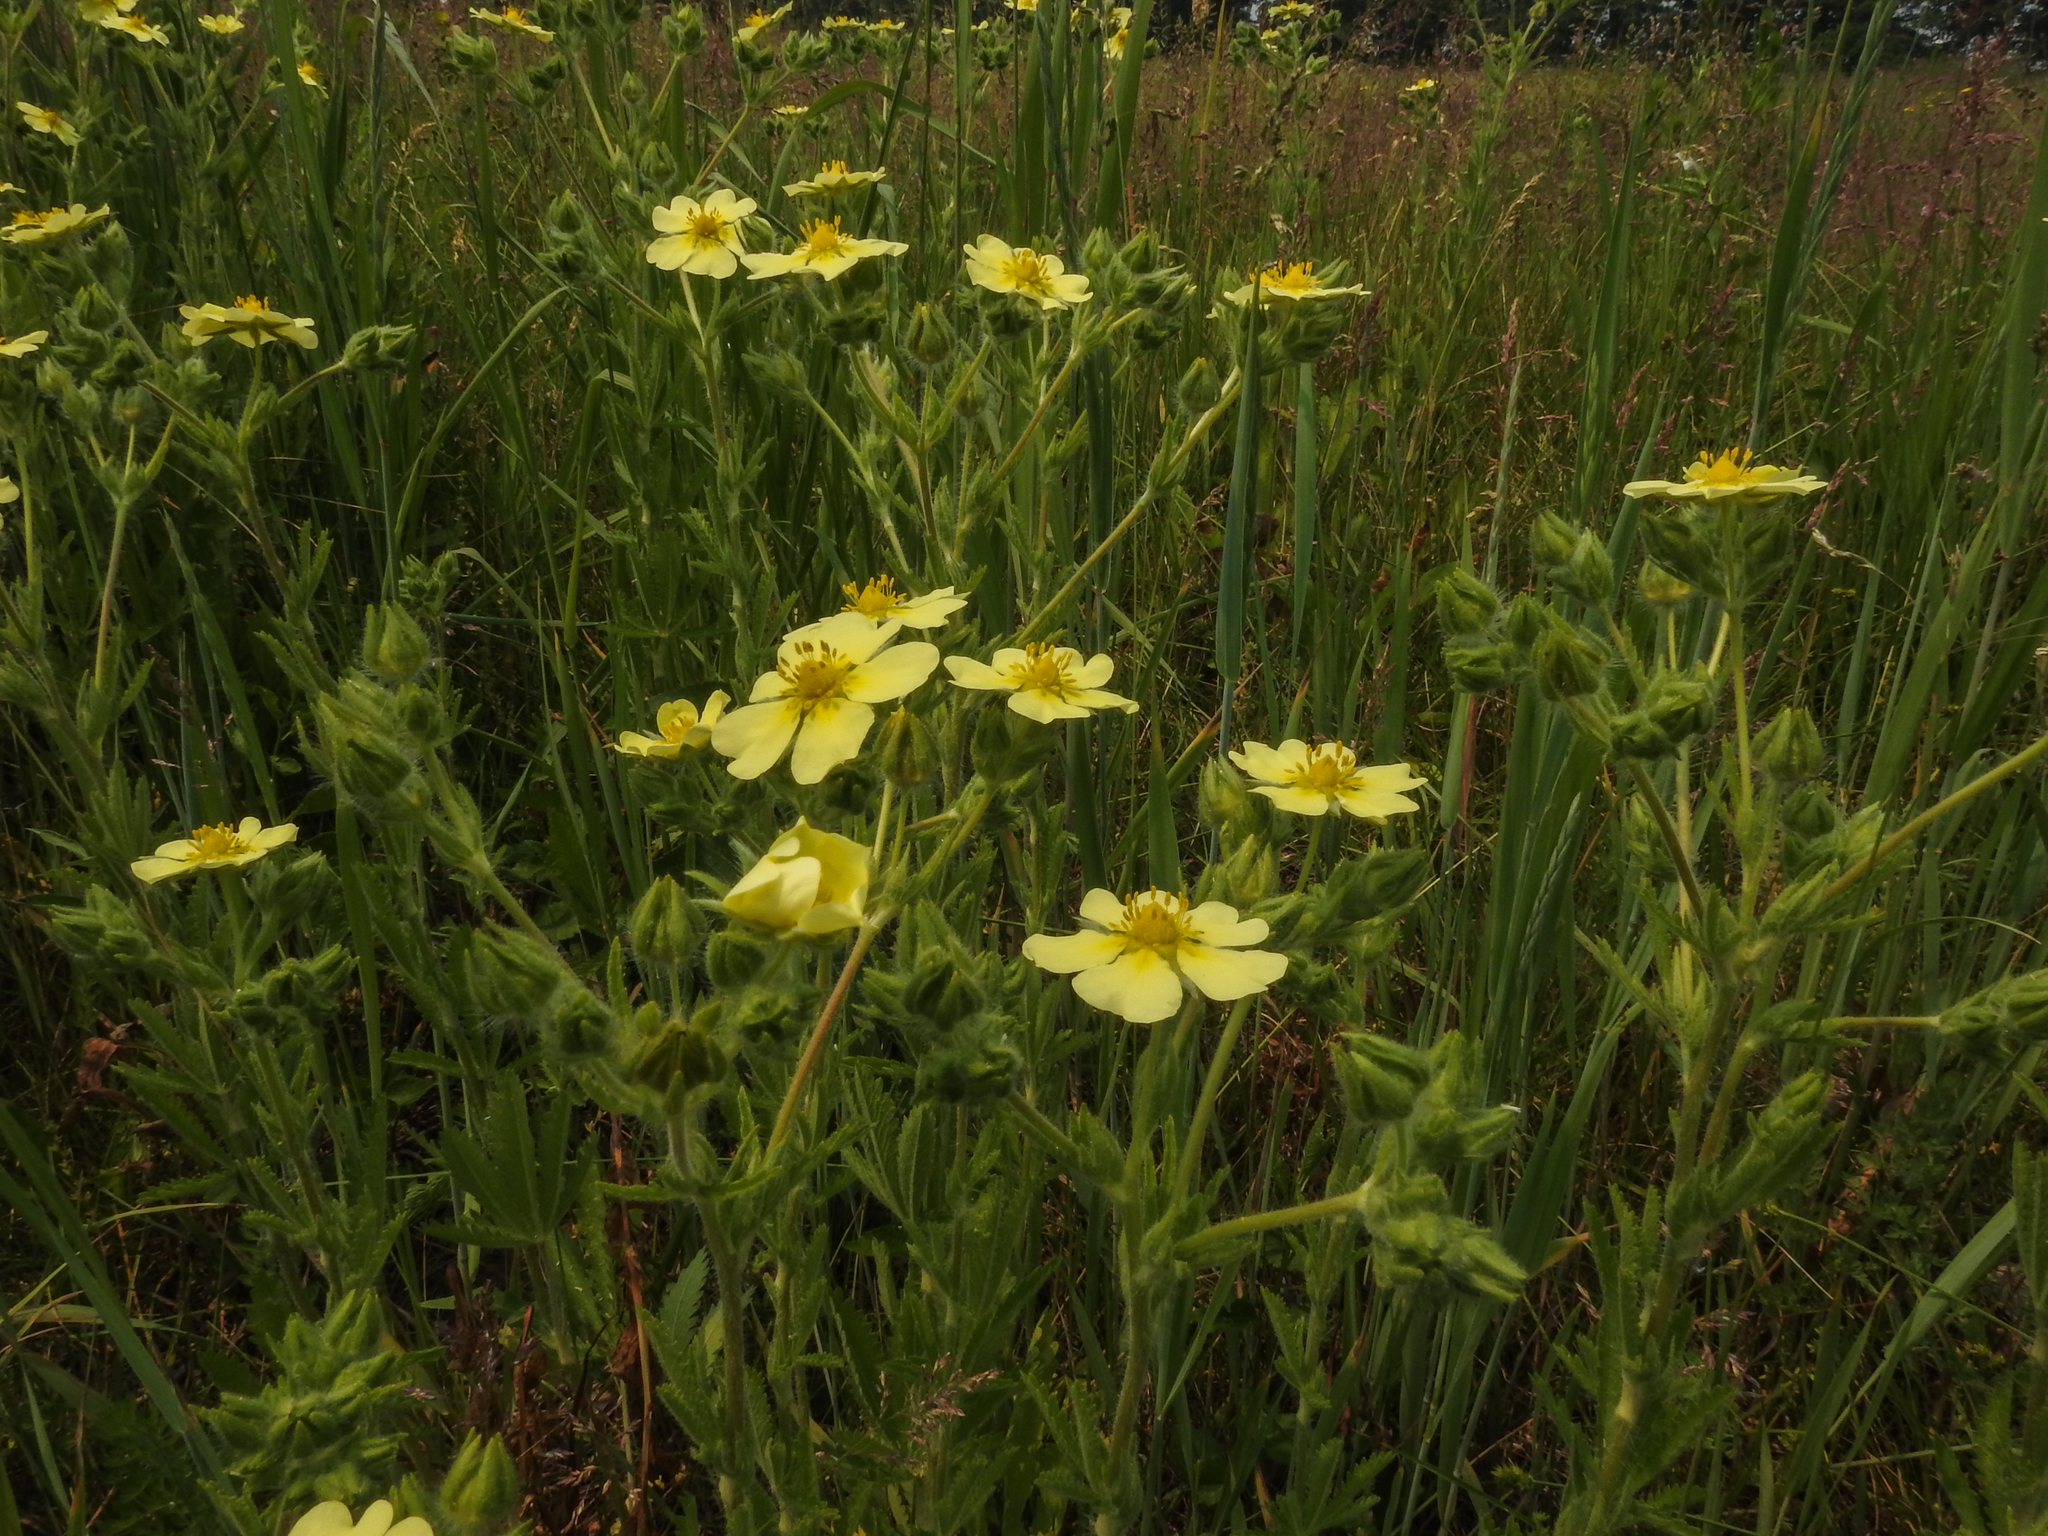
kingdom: Plantae
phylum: Tracheophyta
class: Magnoliopsida
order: Rosales
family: Rosaceae
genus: Potentilla
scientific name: Potentilla recta
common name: Sulphur cinquefoil
